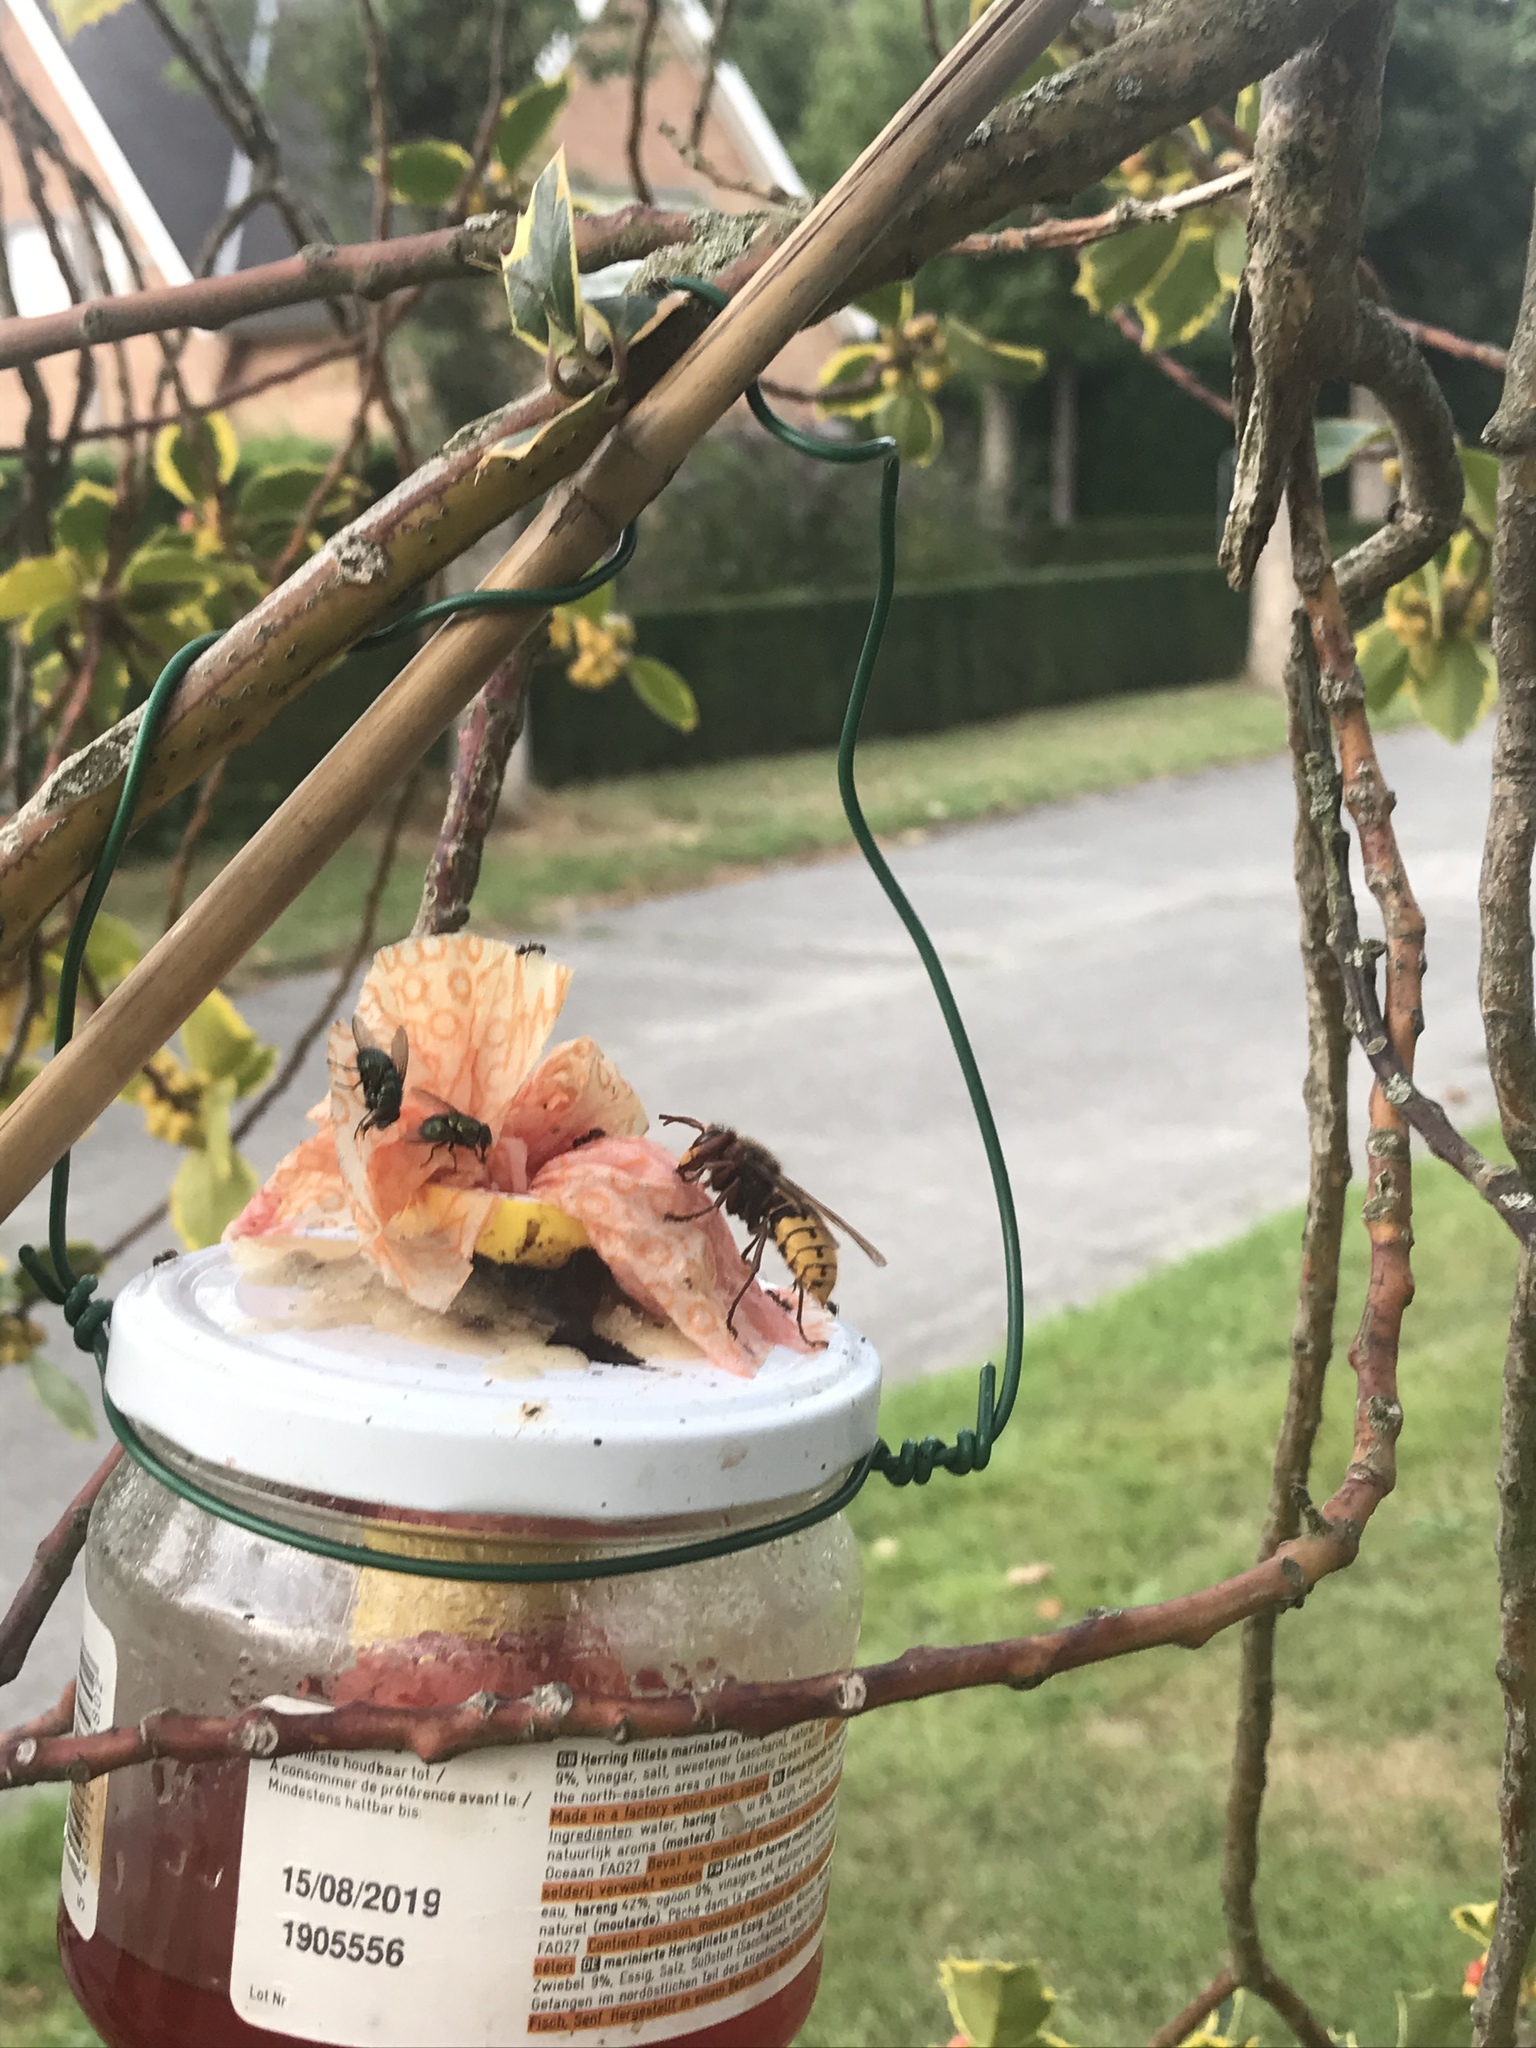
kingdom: Animalia
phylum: Arthropoda
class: Insecta
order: Hymenoptera
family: Vespidae
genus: Vespa
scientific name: Vespa crabro
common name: Hornet
